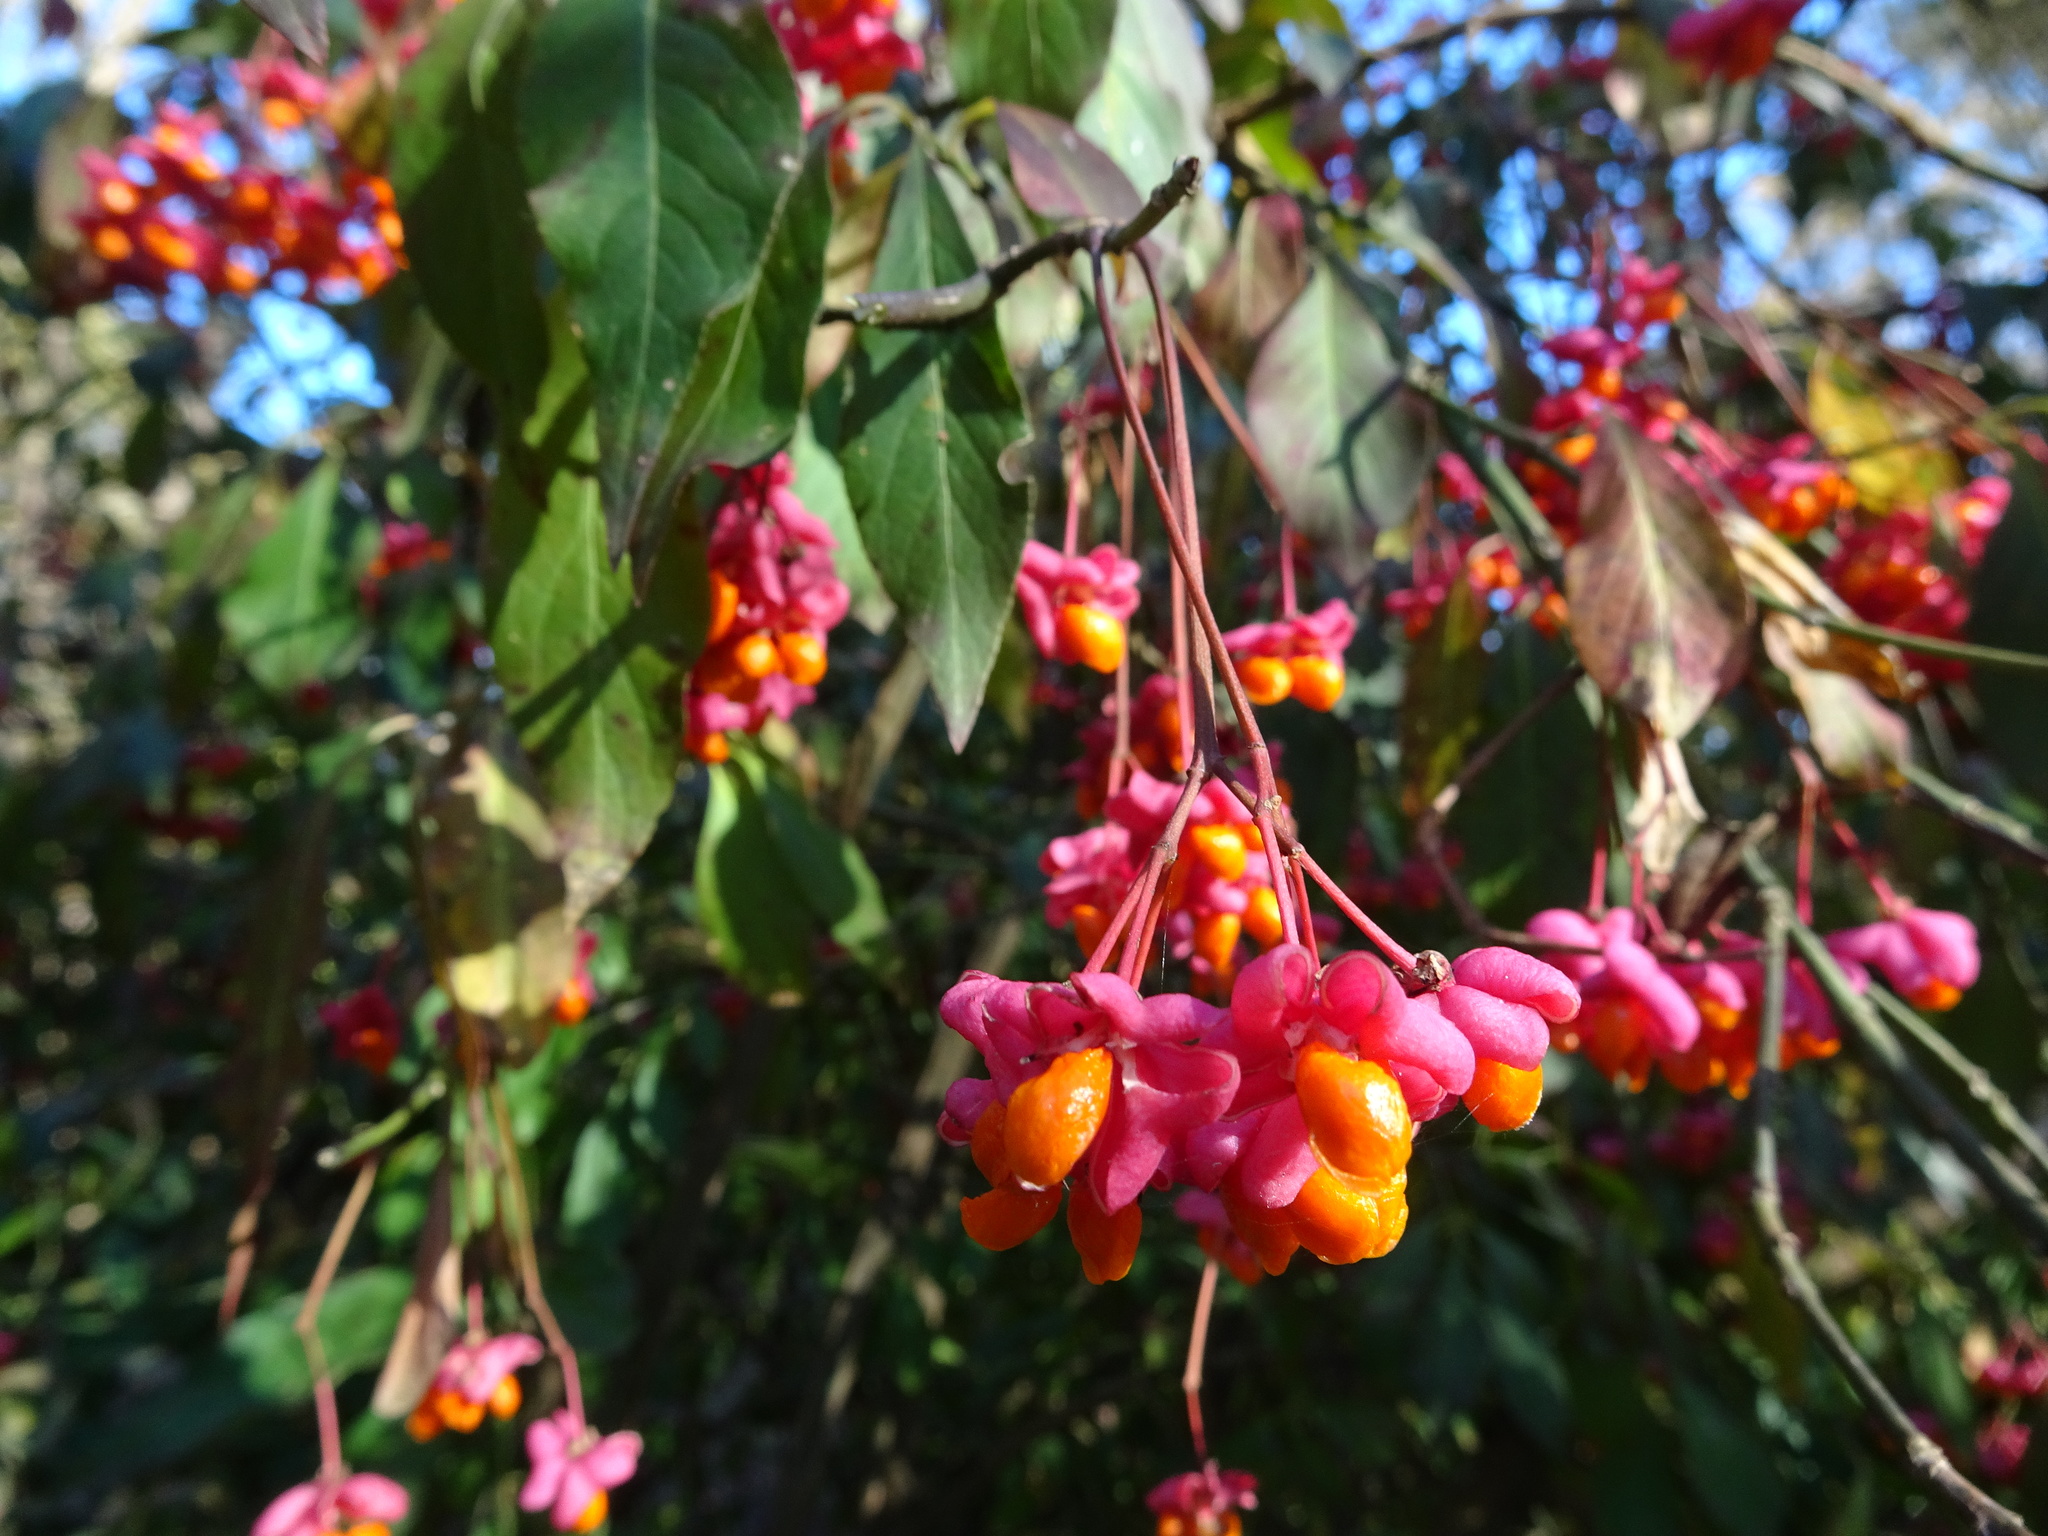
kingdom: Plantae
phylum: Tracheophyta
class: Magnoliopsida
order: Celastrales
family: Celastraceae
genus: Euonymus
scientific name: Euonymus europaeus
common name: Spindle
